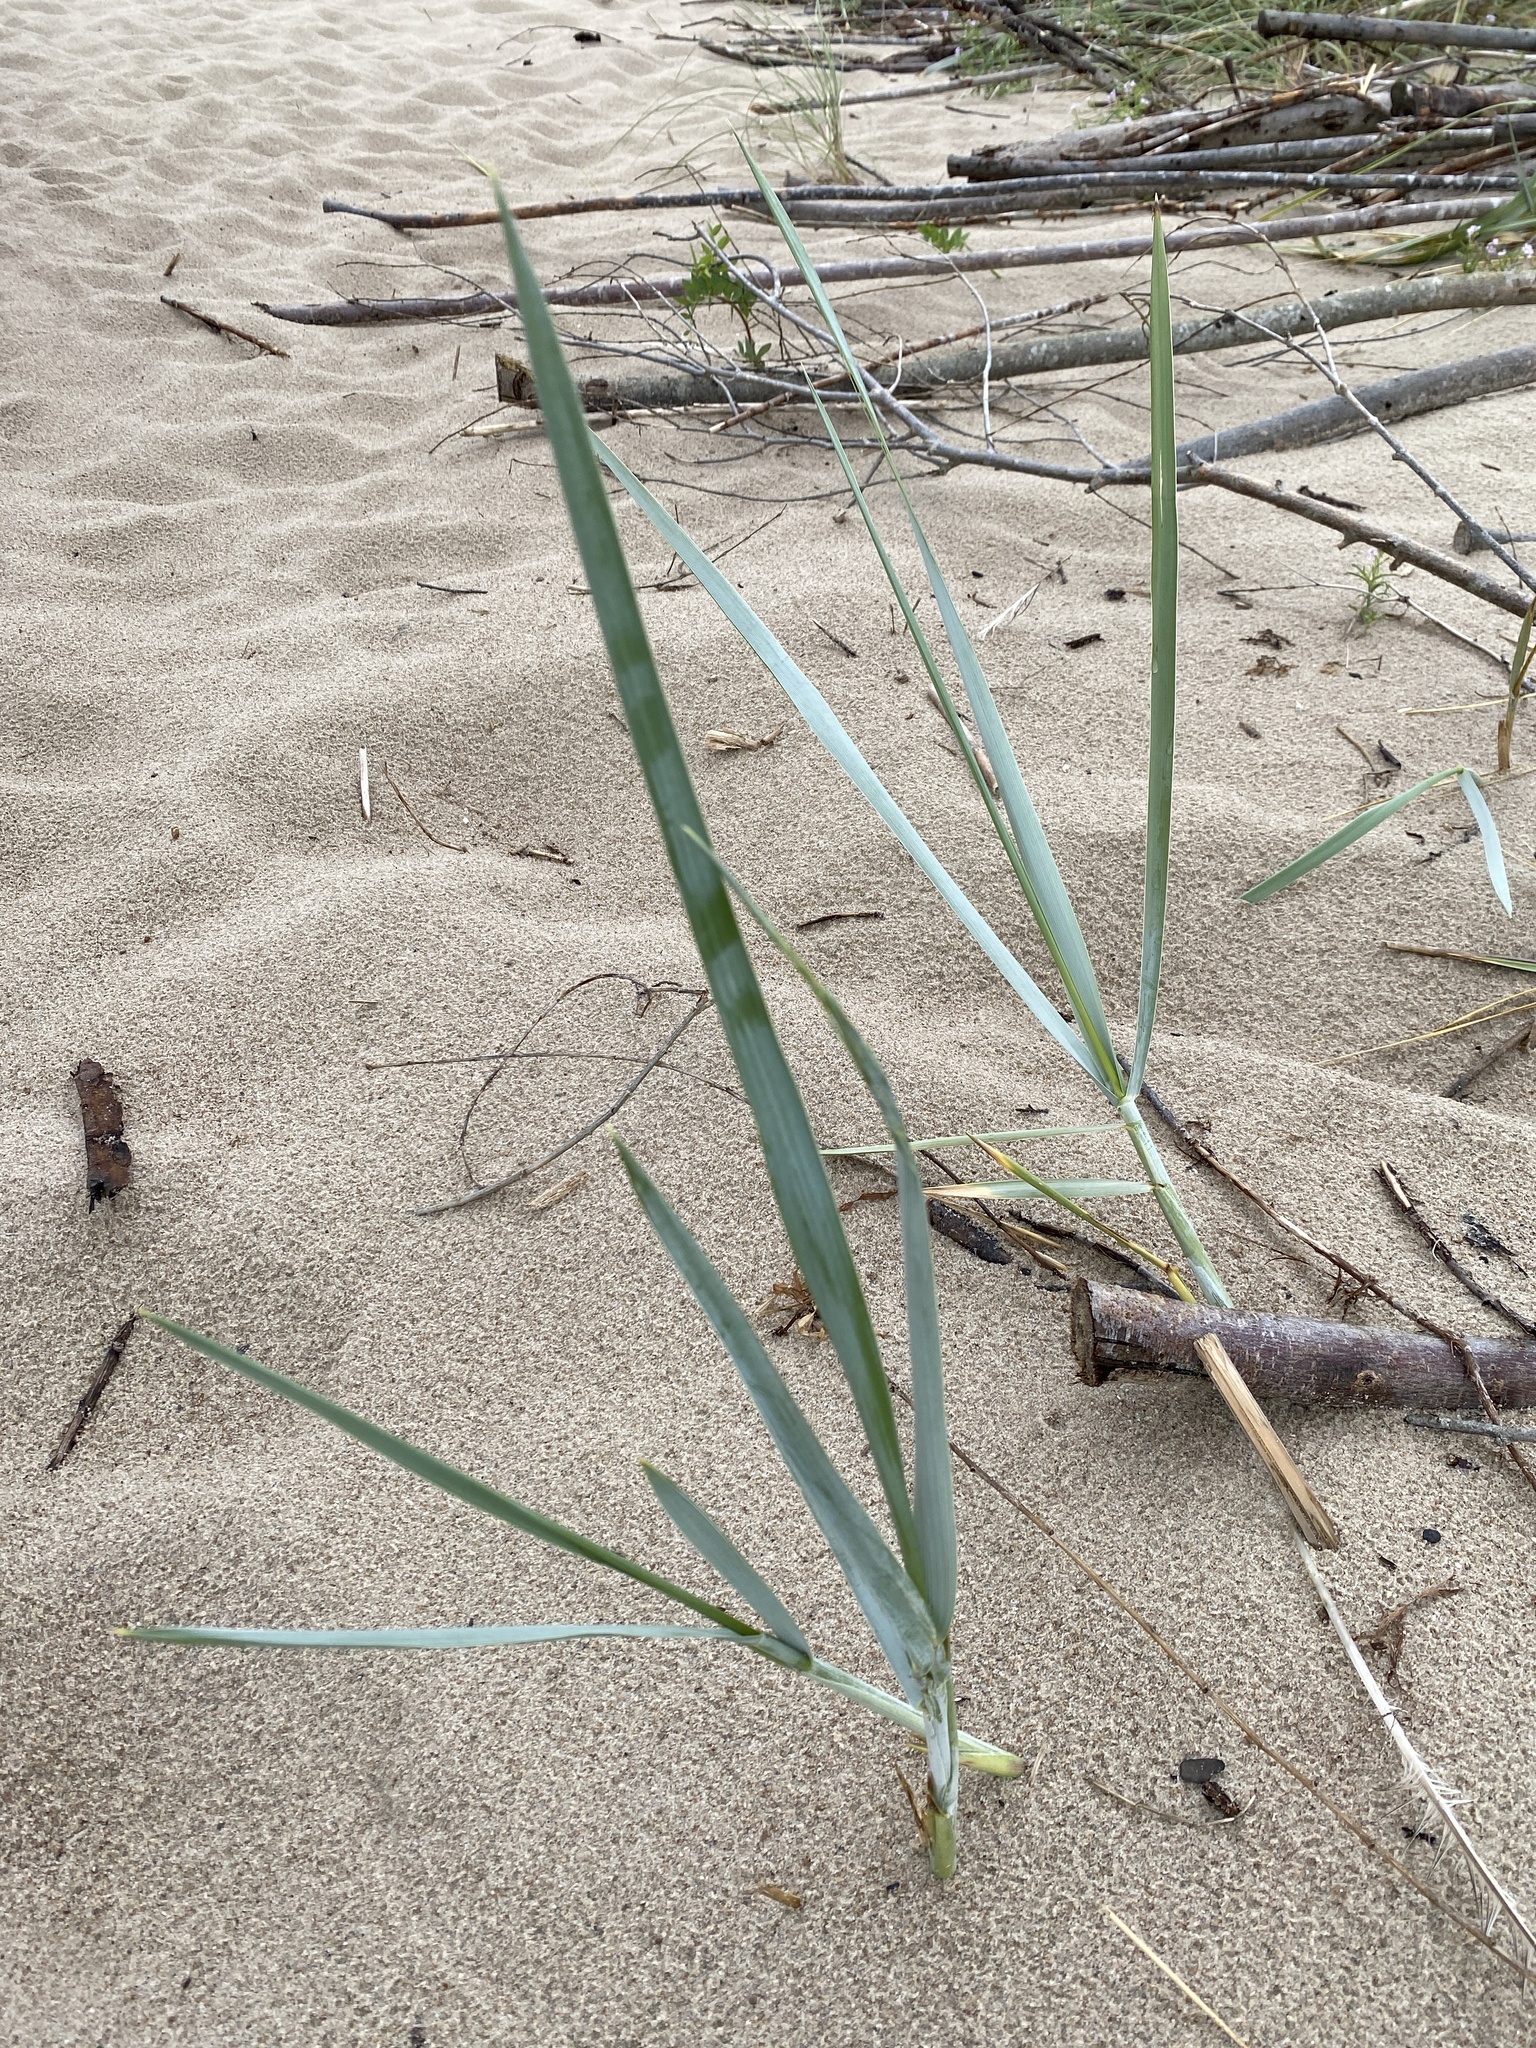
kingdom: Plantae
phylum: Tracheophyta
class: Liliopsida
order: Poales
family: Poaceae
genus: Leymus
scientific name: Leymus arenarius
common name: Lyme-grass
